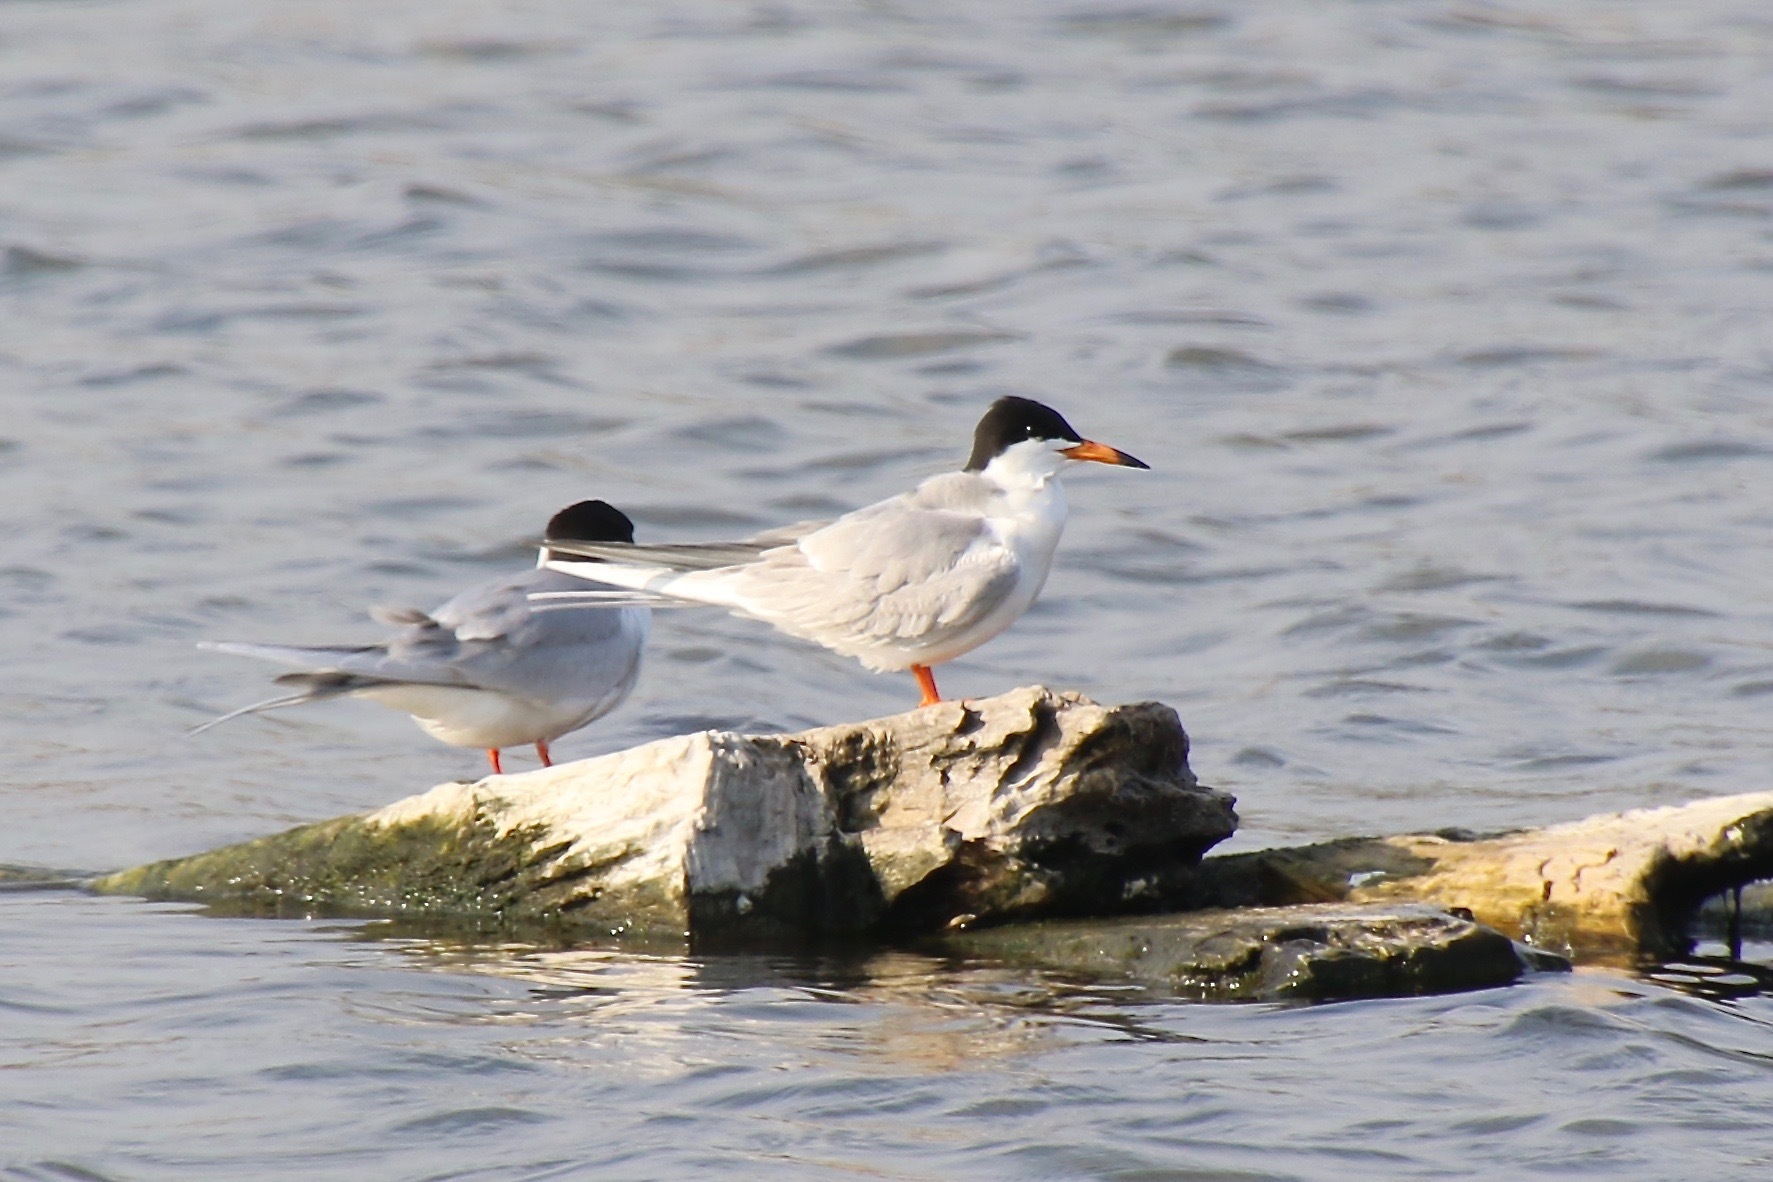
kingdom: Animalia
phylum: Chordata
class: Aves
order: Charadriiformes
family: Laridae
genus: Sterna
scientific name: Sterna forsteri
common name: Forster's tern
